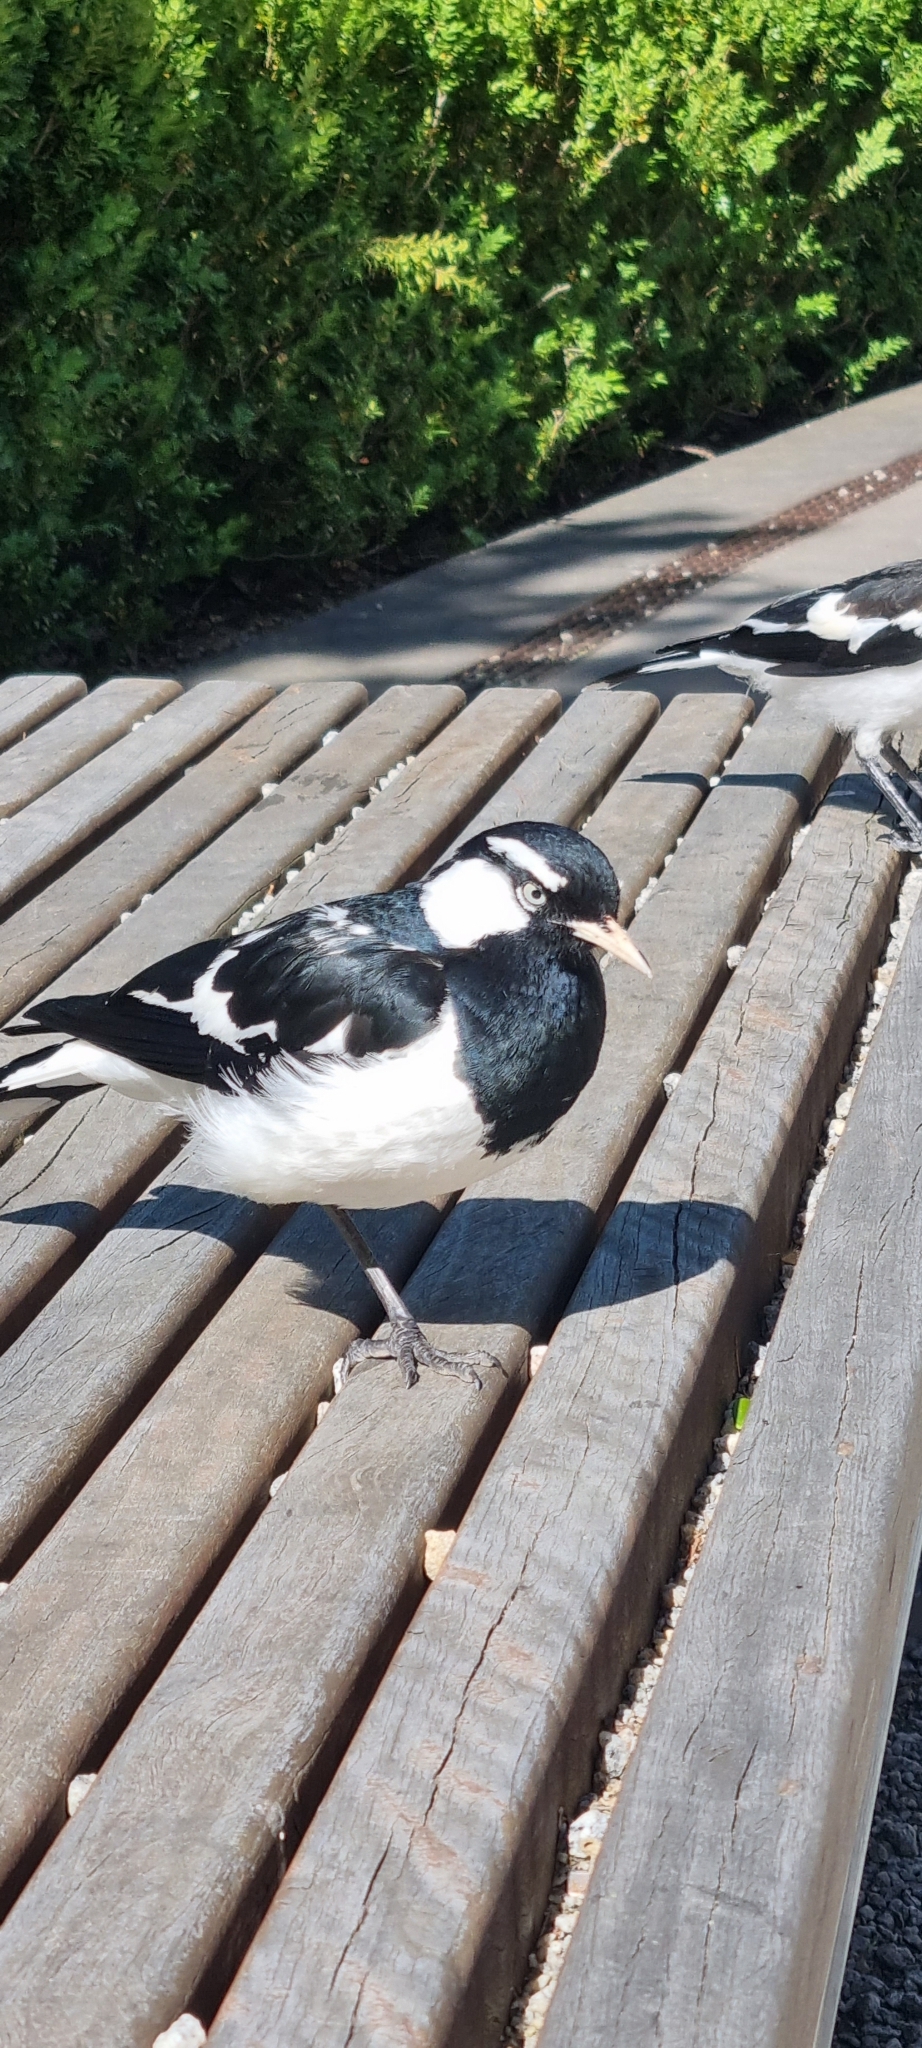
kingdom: Animalia
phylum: Chordata
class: Aves
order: Passeriformes
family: Monarchidae
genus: Grallina
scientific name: Grallina cyanoleuca
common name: Magpie-lark
